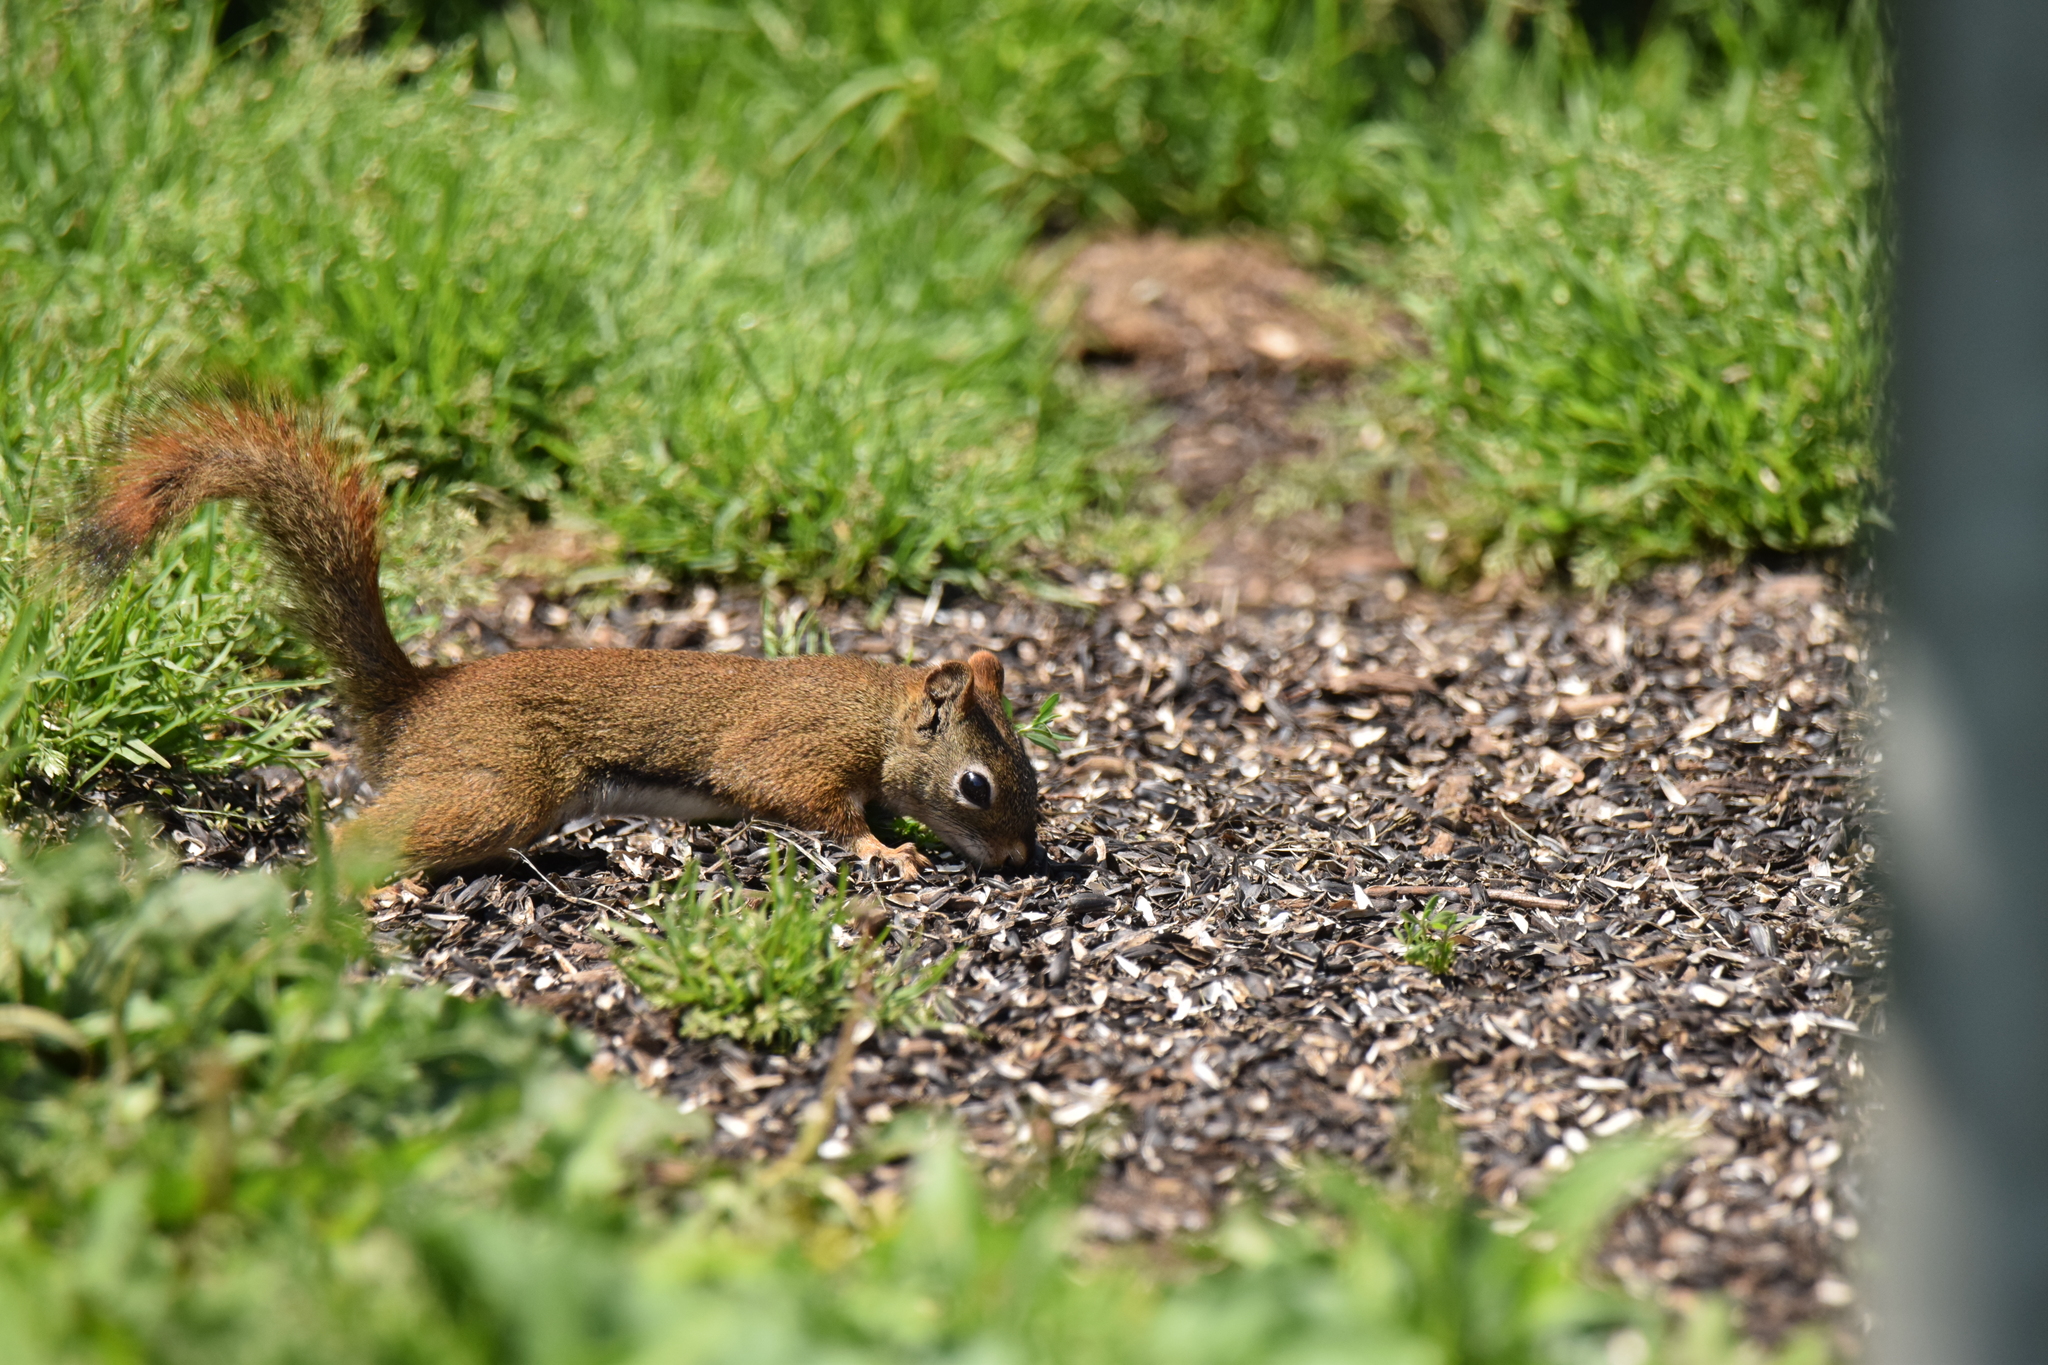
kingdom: Animalia
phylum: Chordata
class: Mammalia
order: Rodentia
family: Sciuridae
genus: Tamiasciurus
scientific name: Tamiasciurus hudsonicus
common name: Red squirrel
